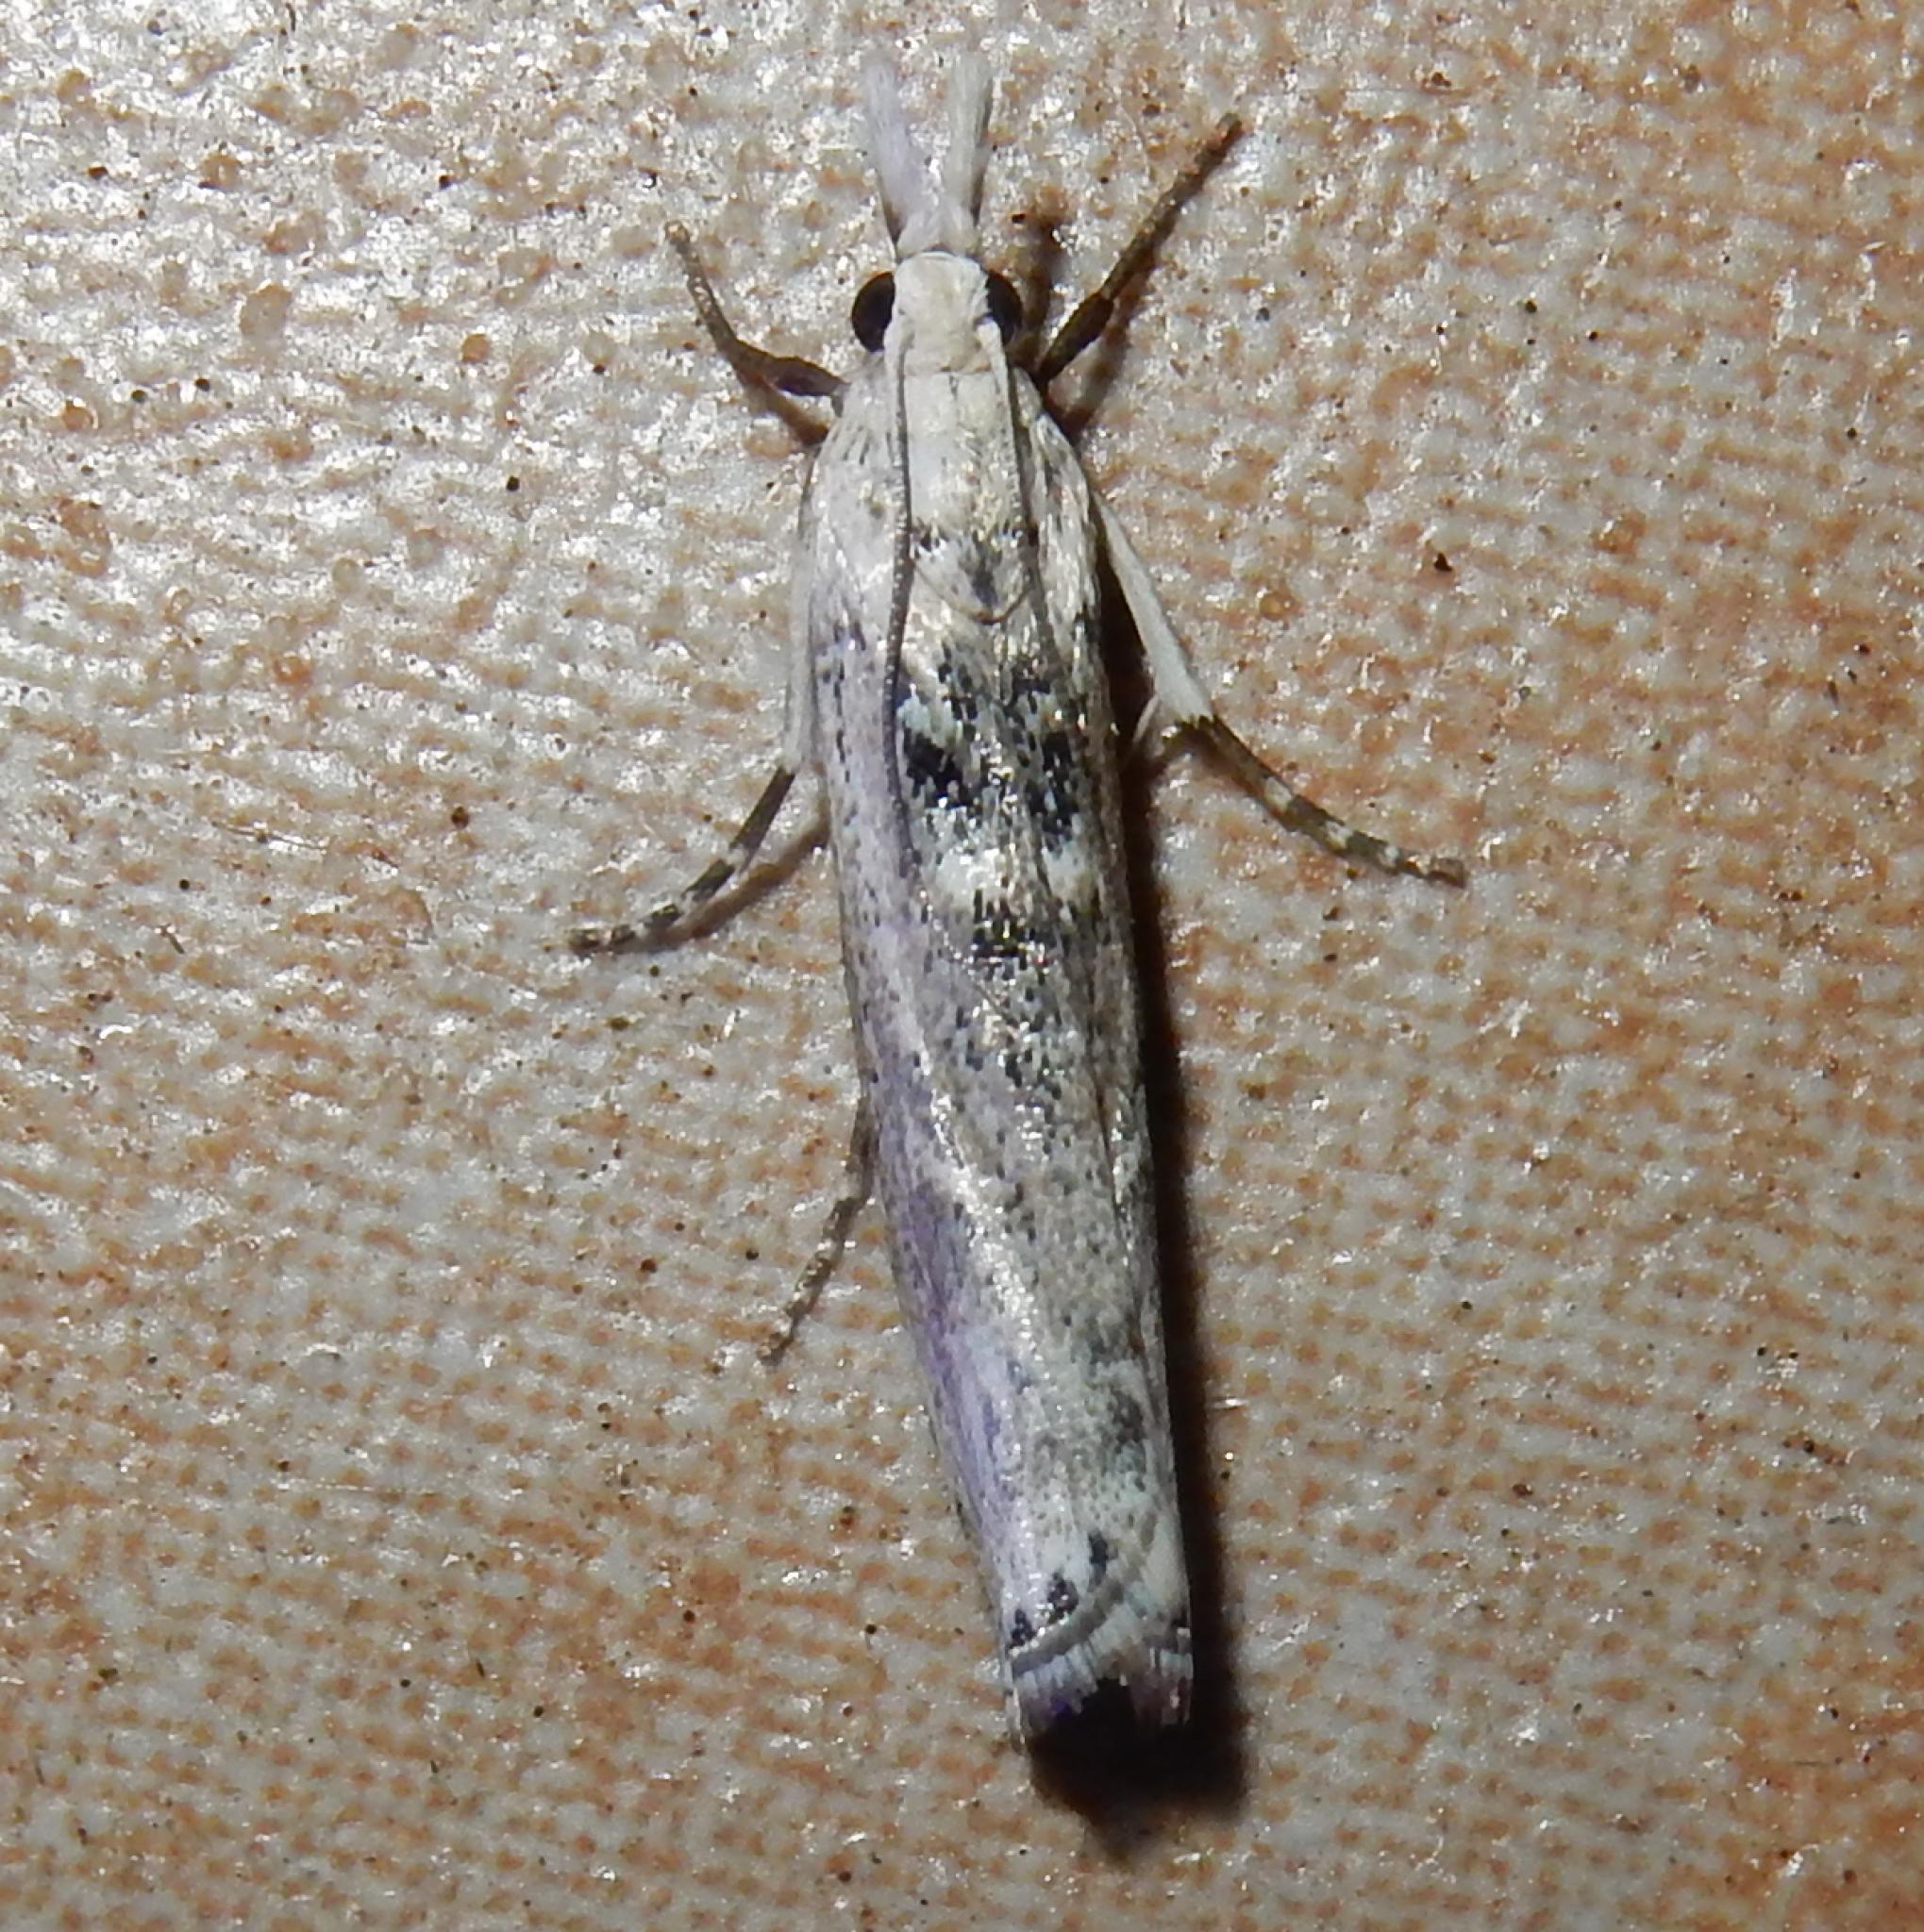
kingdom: Animalia
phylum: Arthropoda
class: Insecta
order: Lepidoptera
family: Crambidae
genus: Crambus
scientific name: Crambus sparsellus
